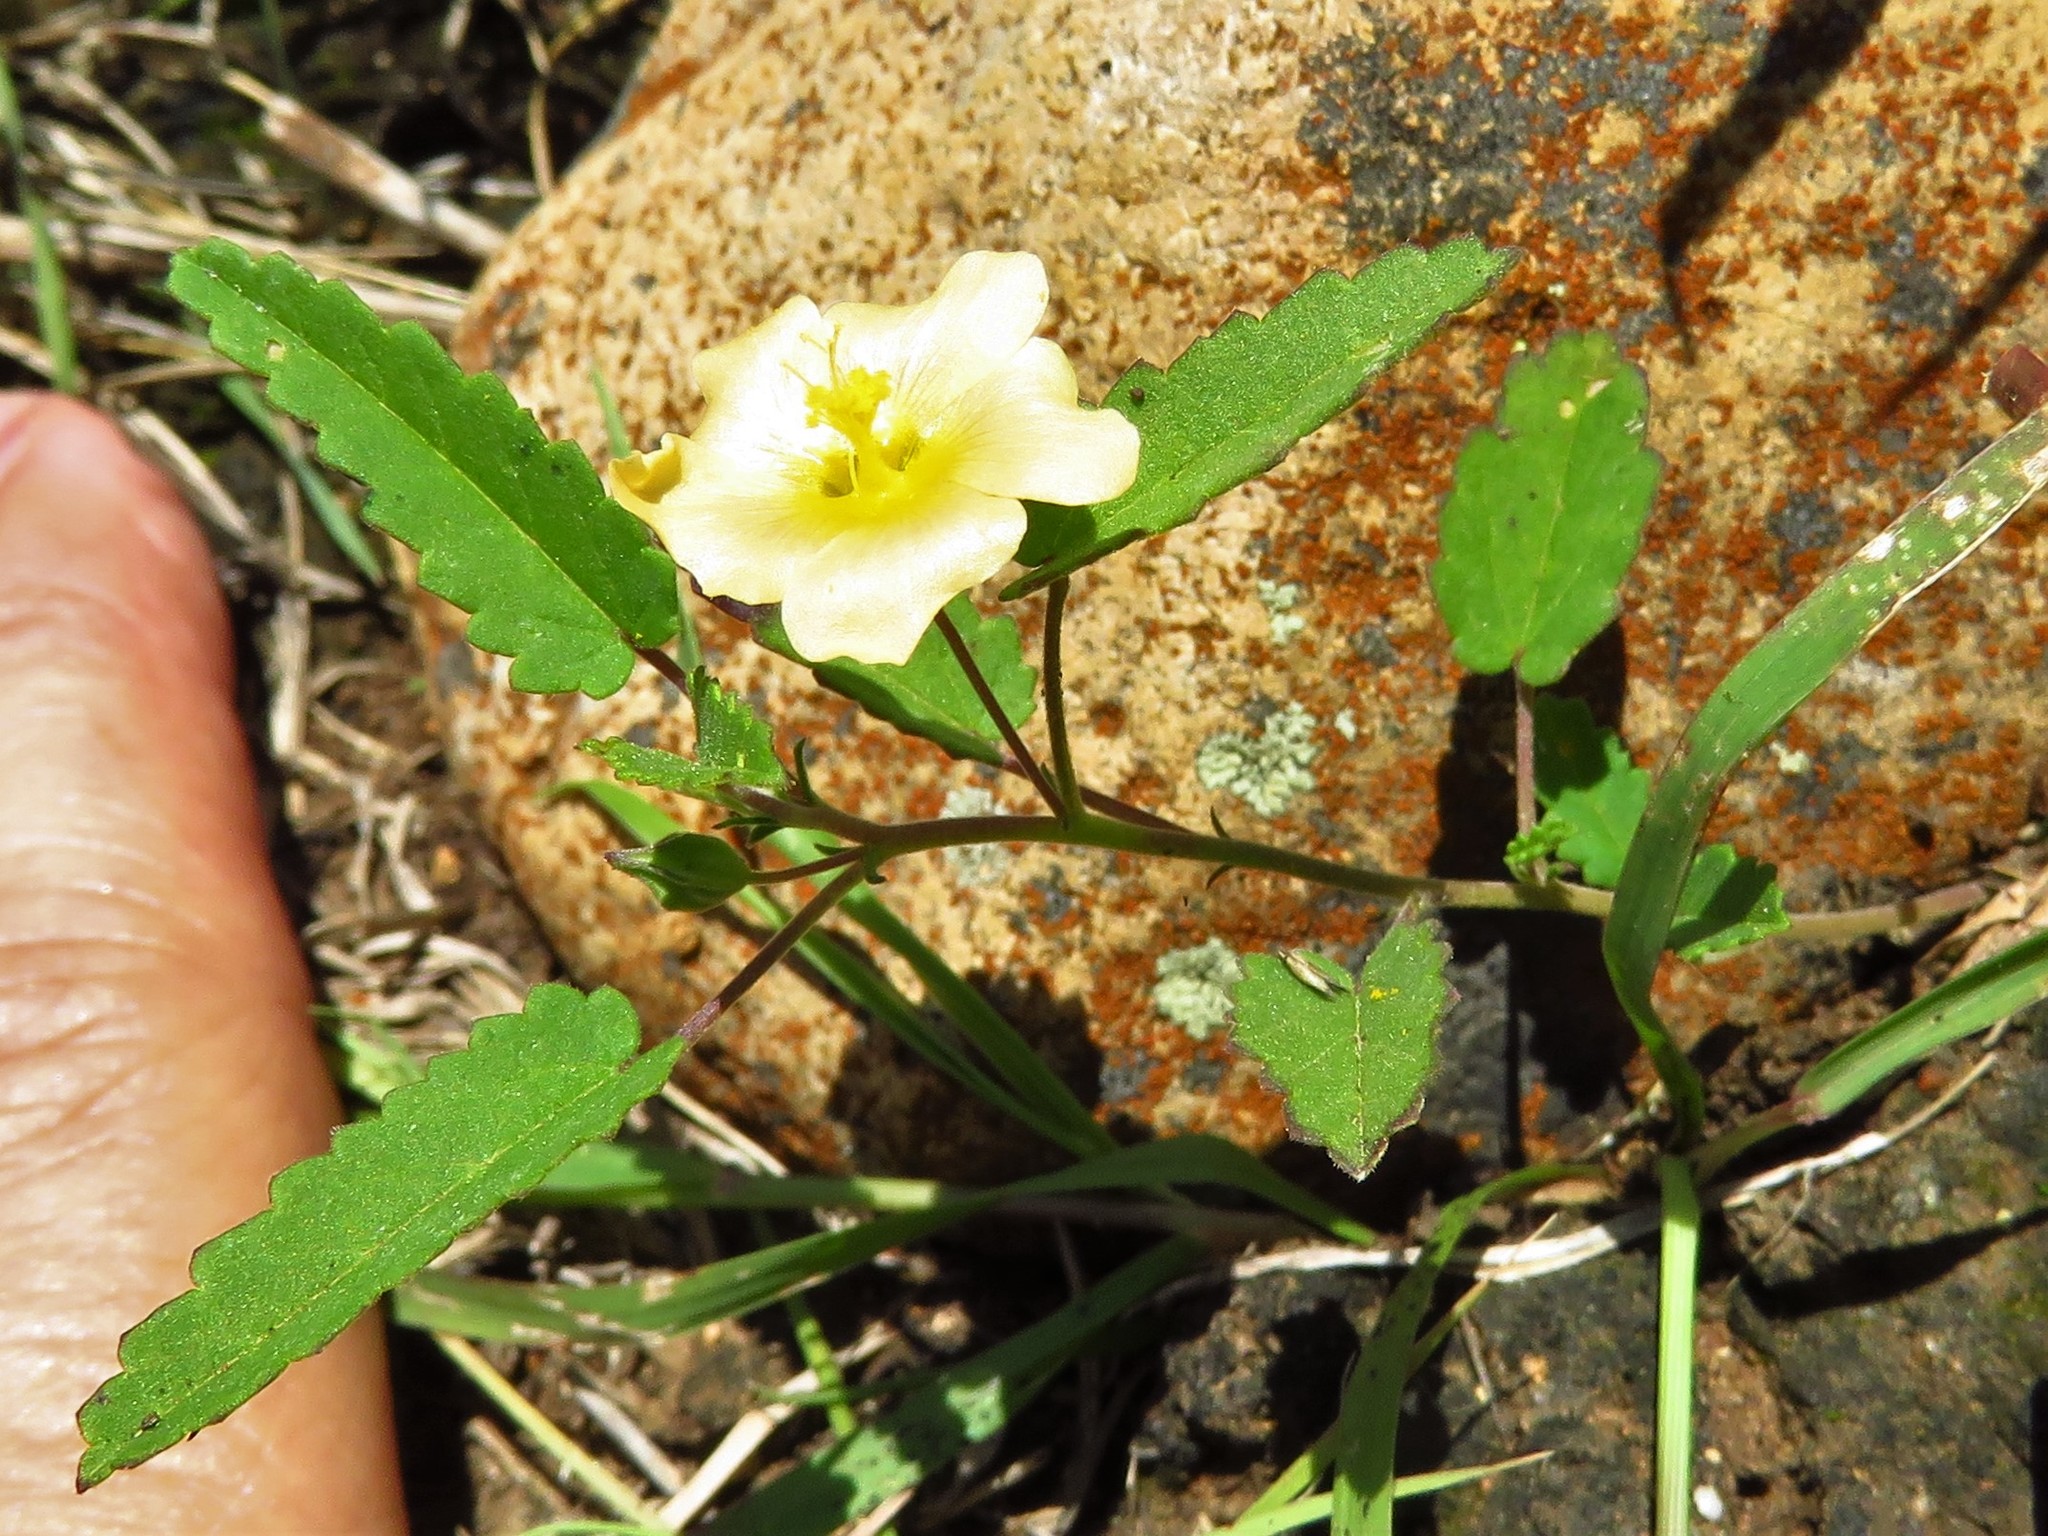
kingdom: Plantae
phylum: Tracheophyta
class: Magnoliopsida
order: Malvales
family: Malvaceae
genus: Sida
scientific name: Sida abutilifolia
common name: Spreading fanpetals
